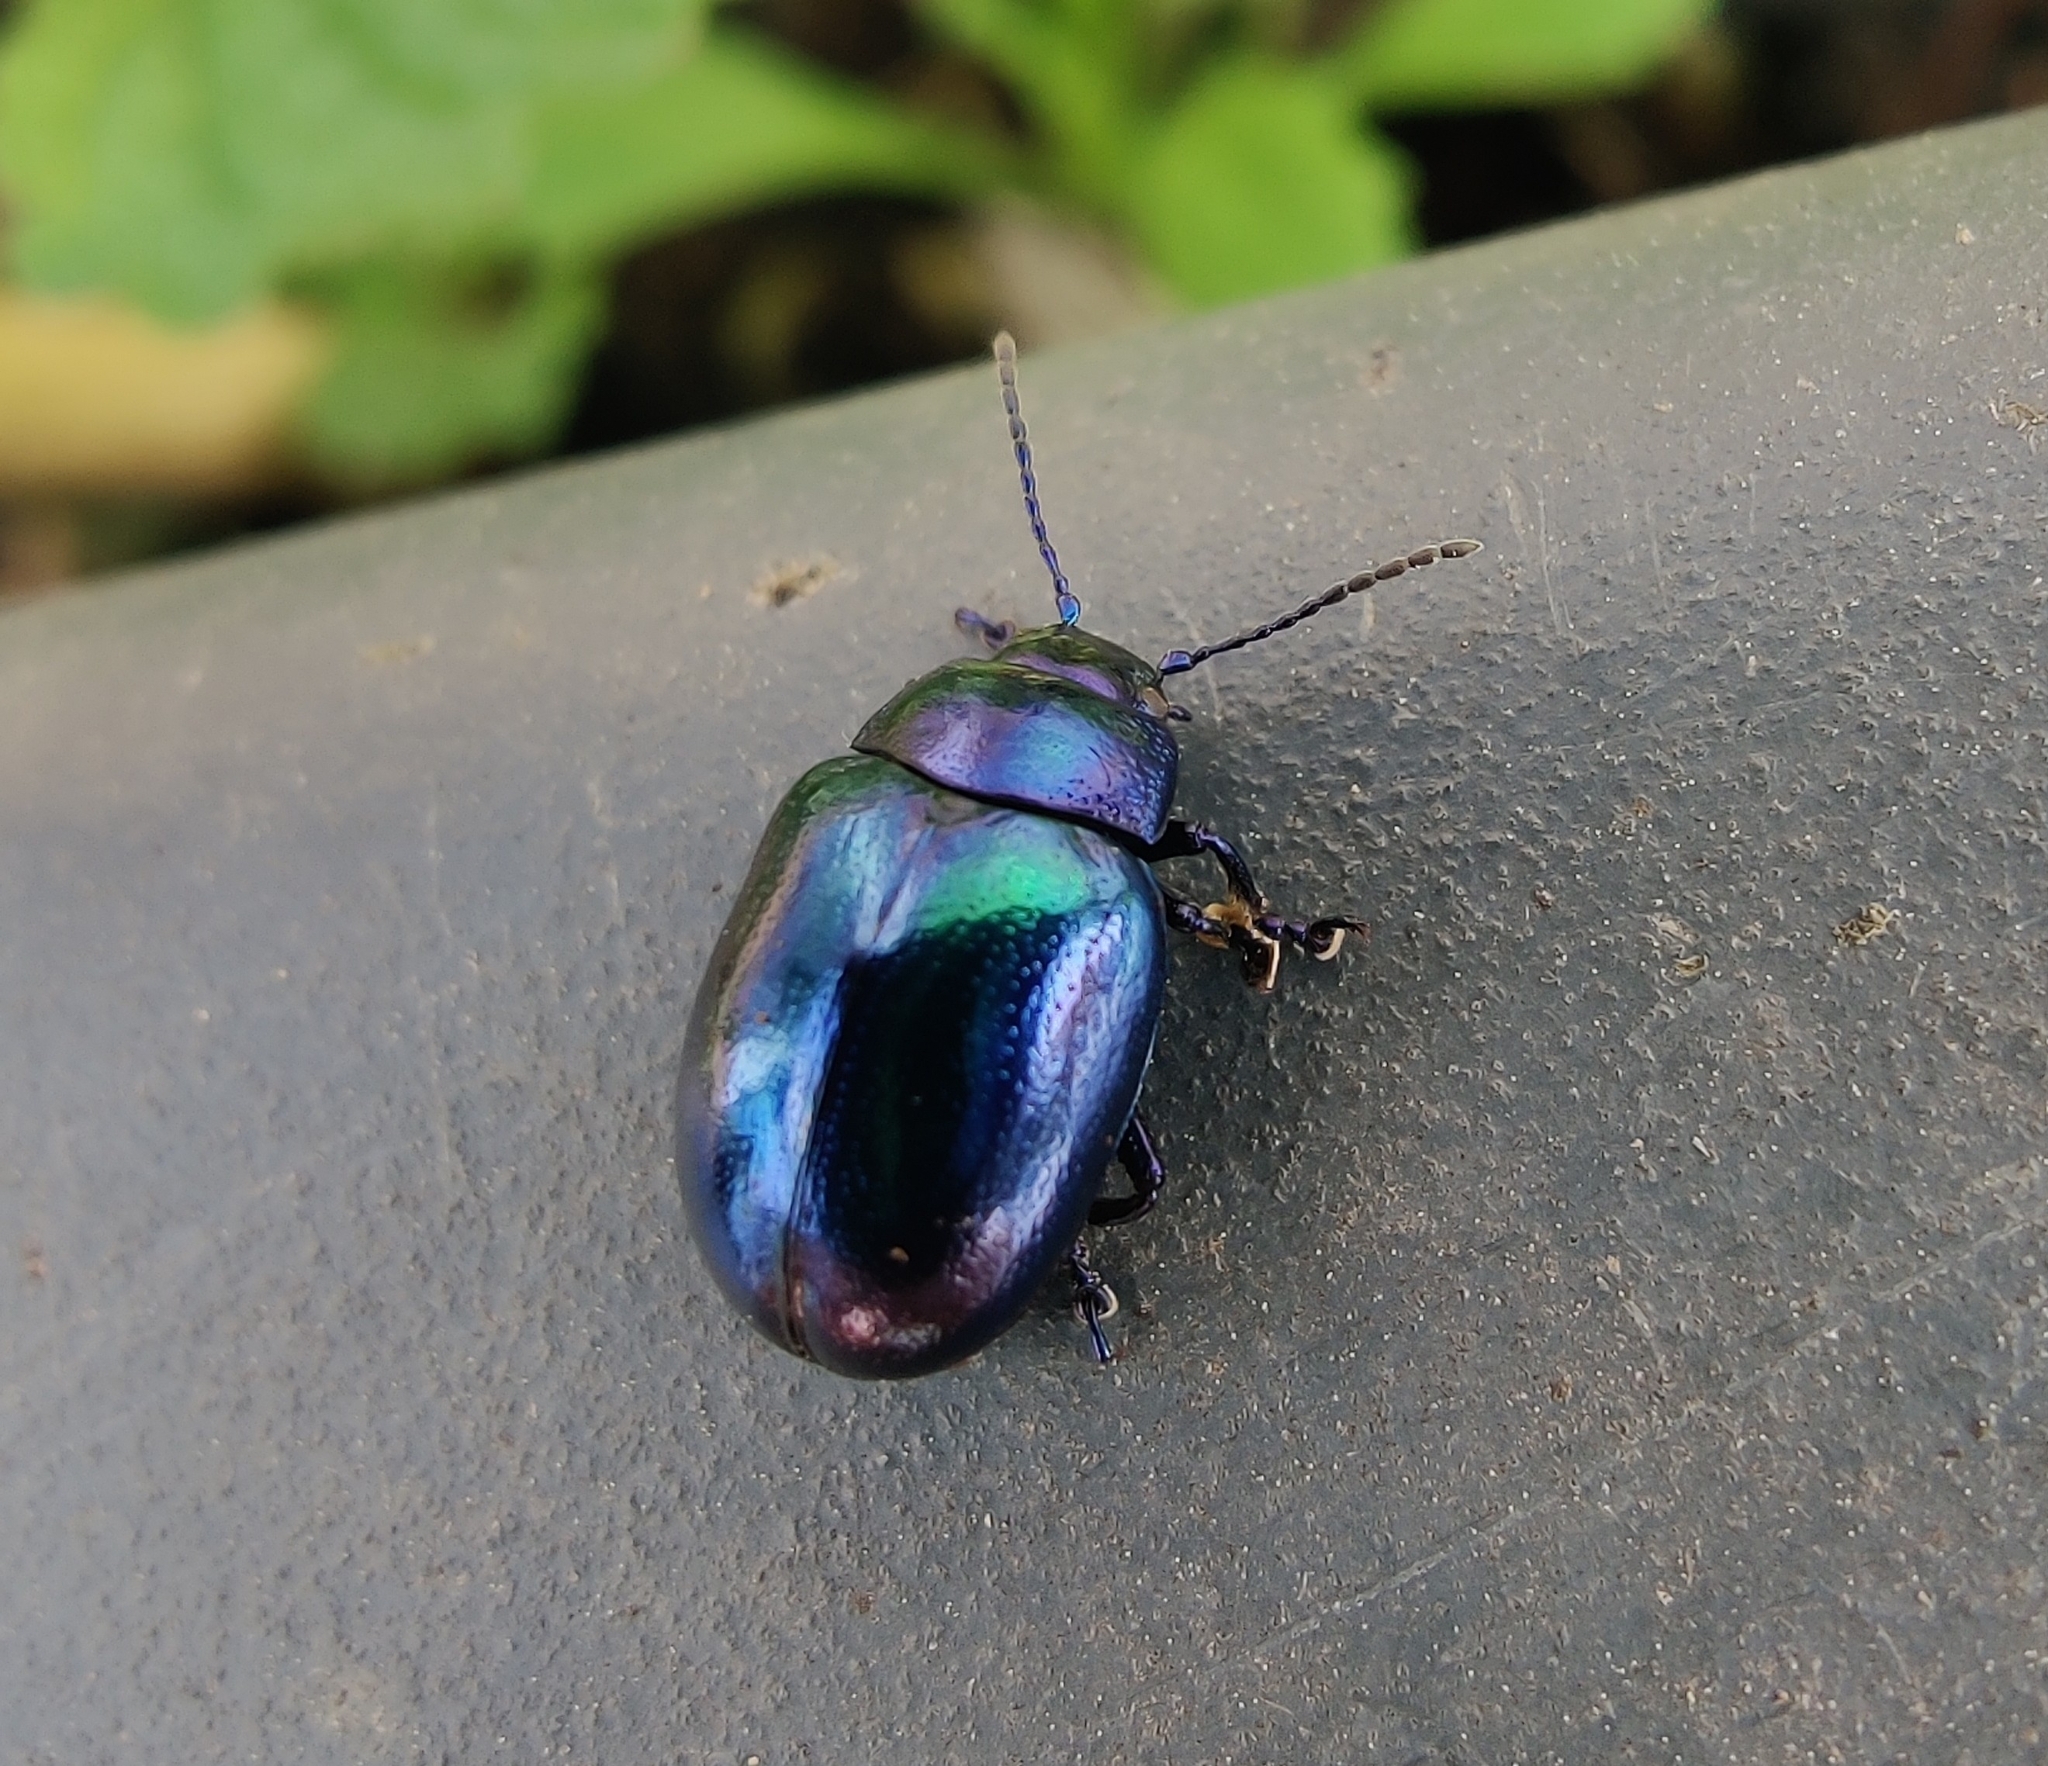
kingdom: Animalia
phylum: Arthropoda
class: Insecta
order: Coleoptera
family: Chrysomelidae
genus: Chrysolina
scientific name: Chrysolina coerulans
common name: Blue mint beetle
